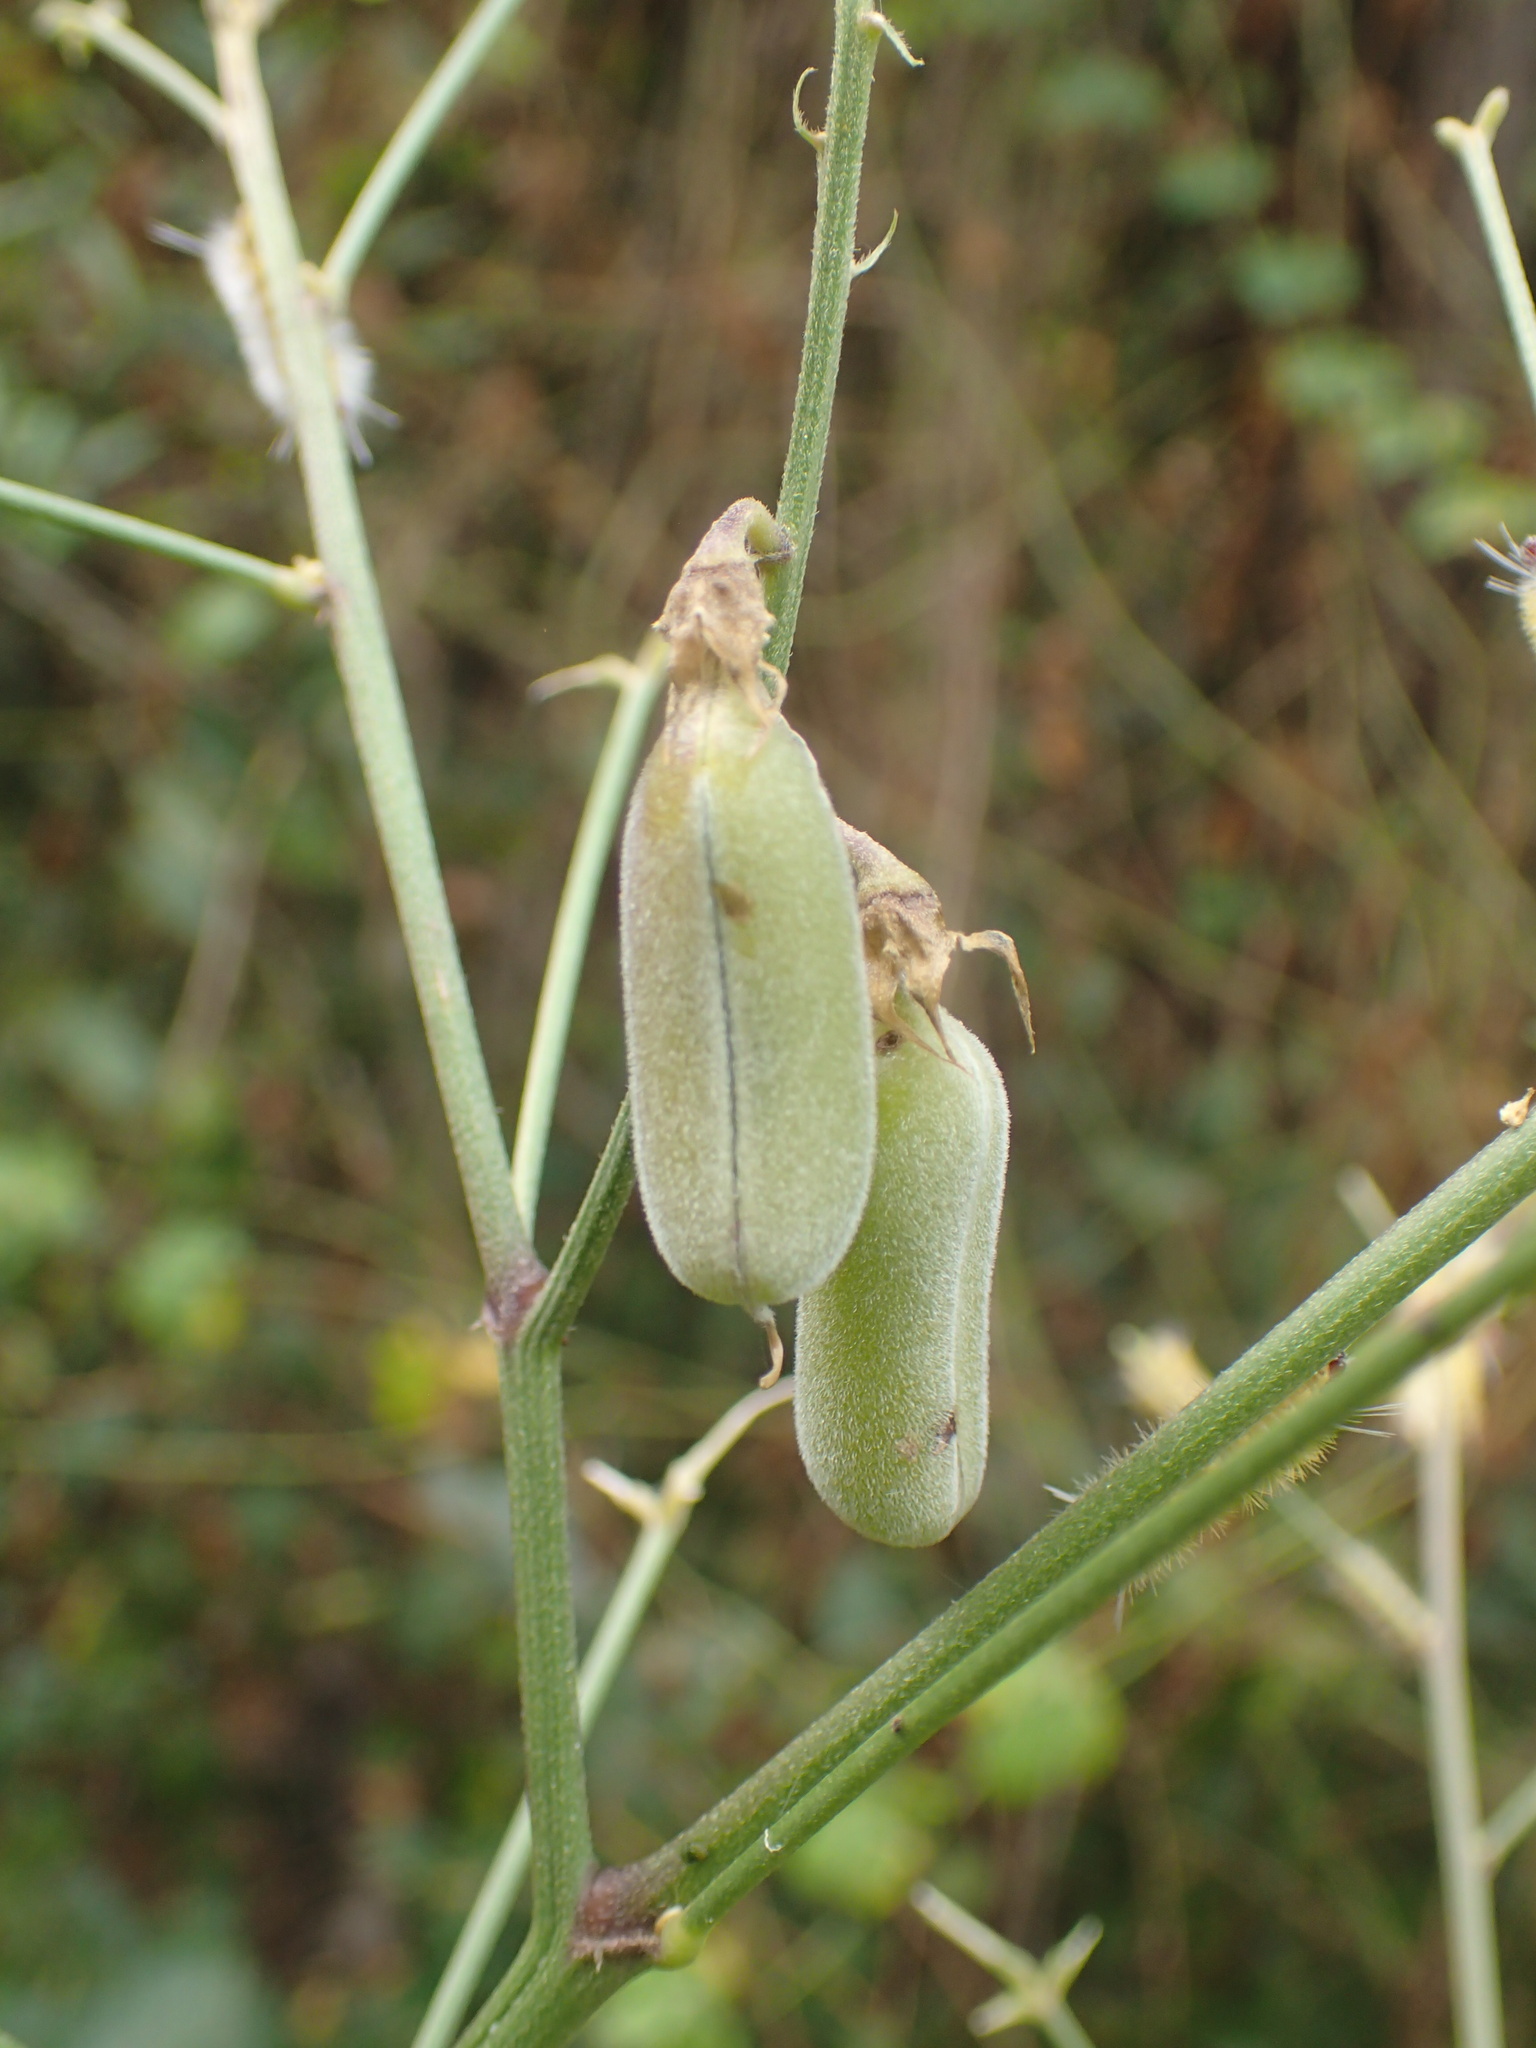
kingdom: Plantae
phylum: Tracheophyta
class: Magnoliopsida
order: Fabales
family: Fabaceae
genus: Crotalaria
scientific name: Crotalaria pumila
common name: Low rattlebox
